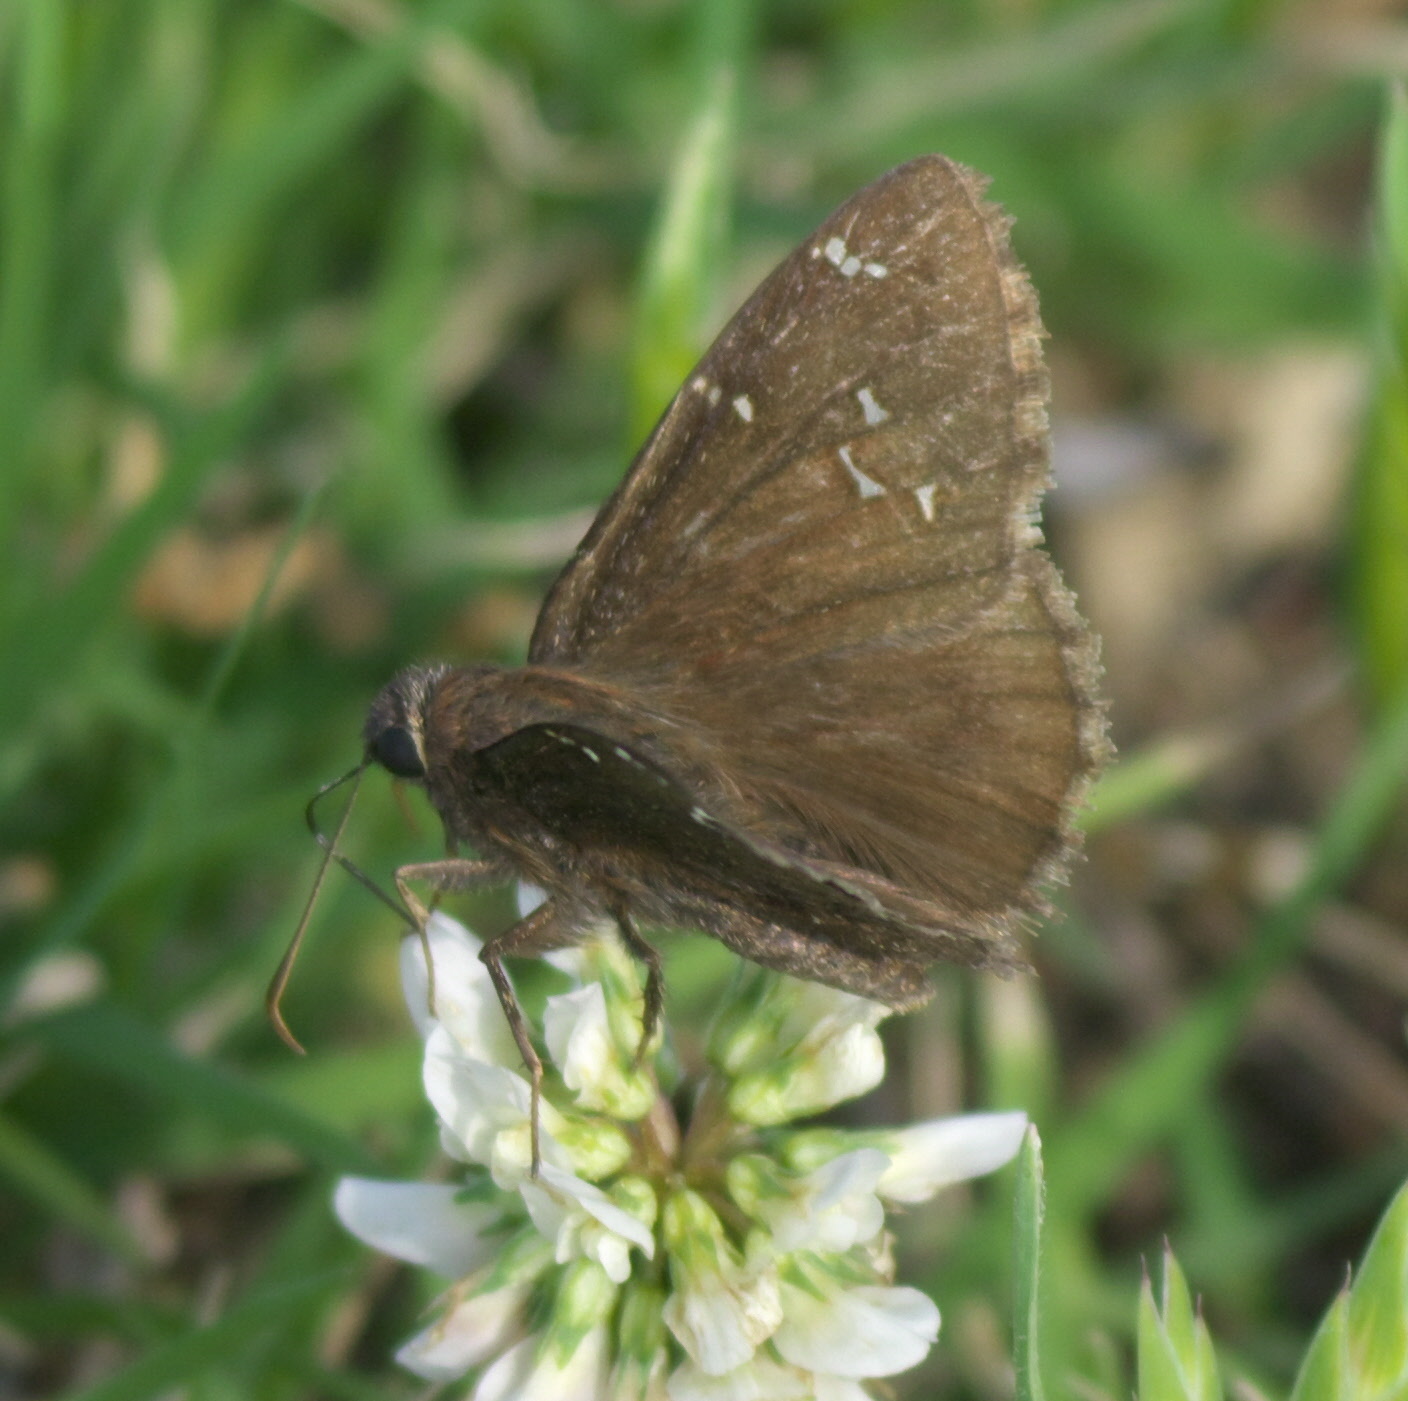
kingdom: Animalia
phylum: Arthropoda
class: Insecta
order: Lepidoptera
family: Hesperiidae
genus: Thorybes
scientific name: Thorybes mexicana
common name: Mexican cloudywing
